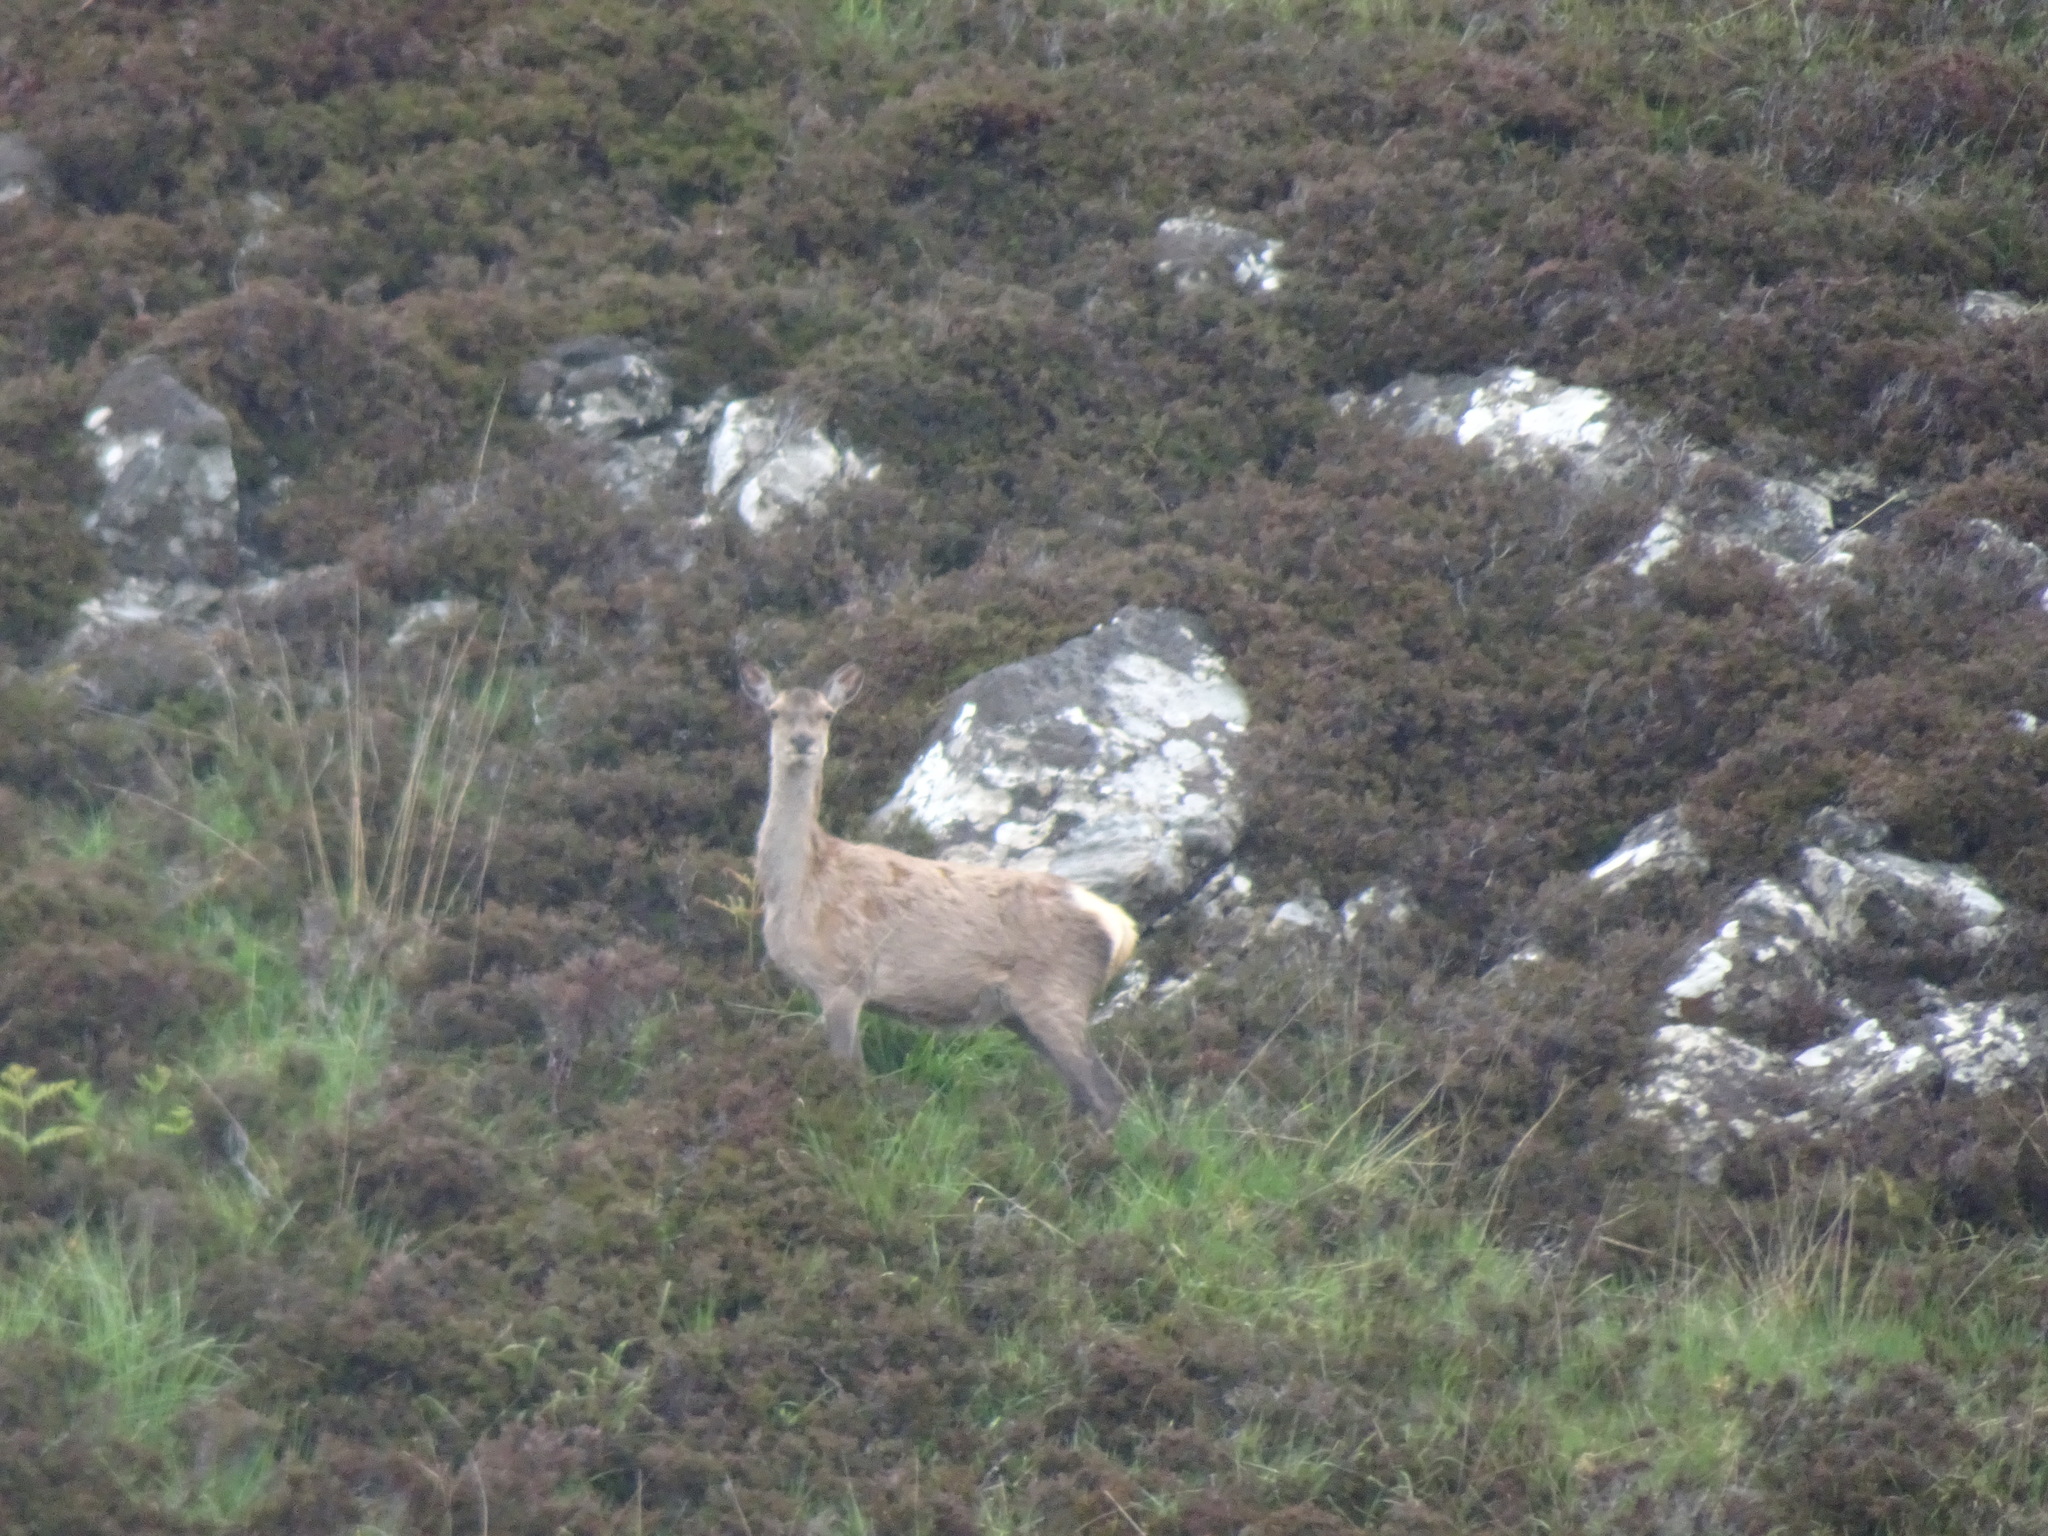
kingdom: Animalia
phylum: Chordata
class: Mammalia
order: Artiodactyla
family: Cervidae
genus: Cervus
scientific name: Cervus elaphus
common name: Red deer
